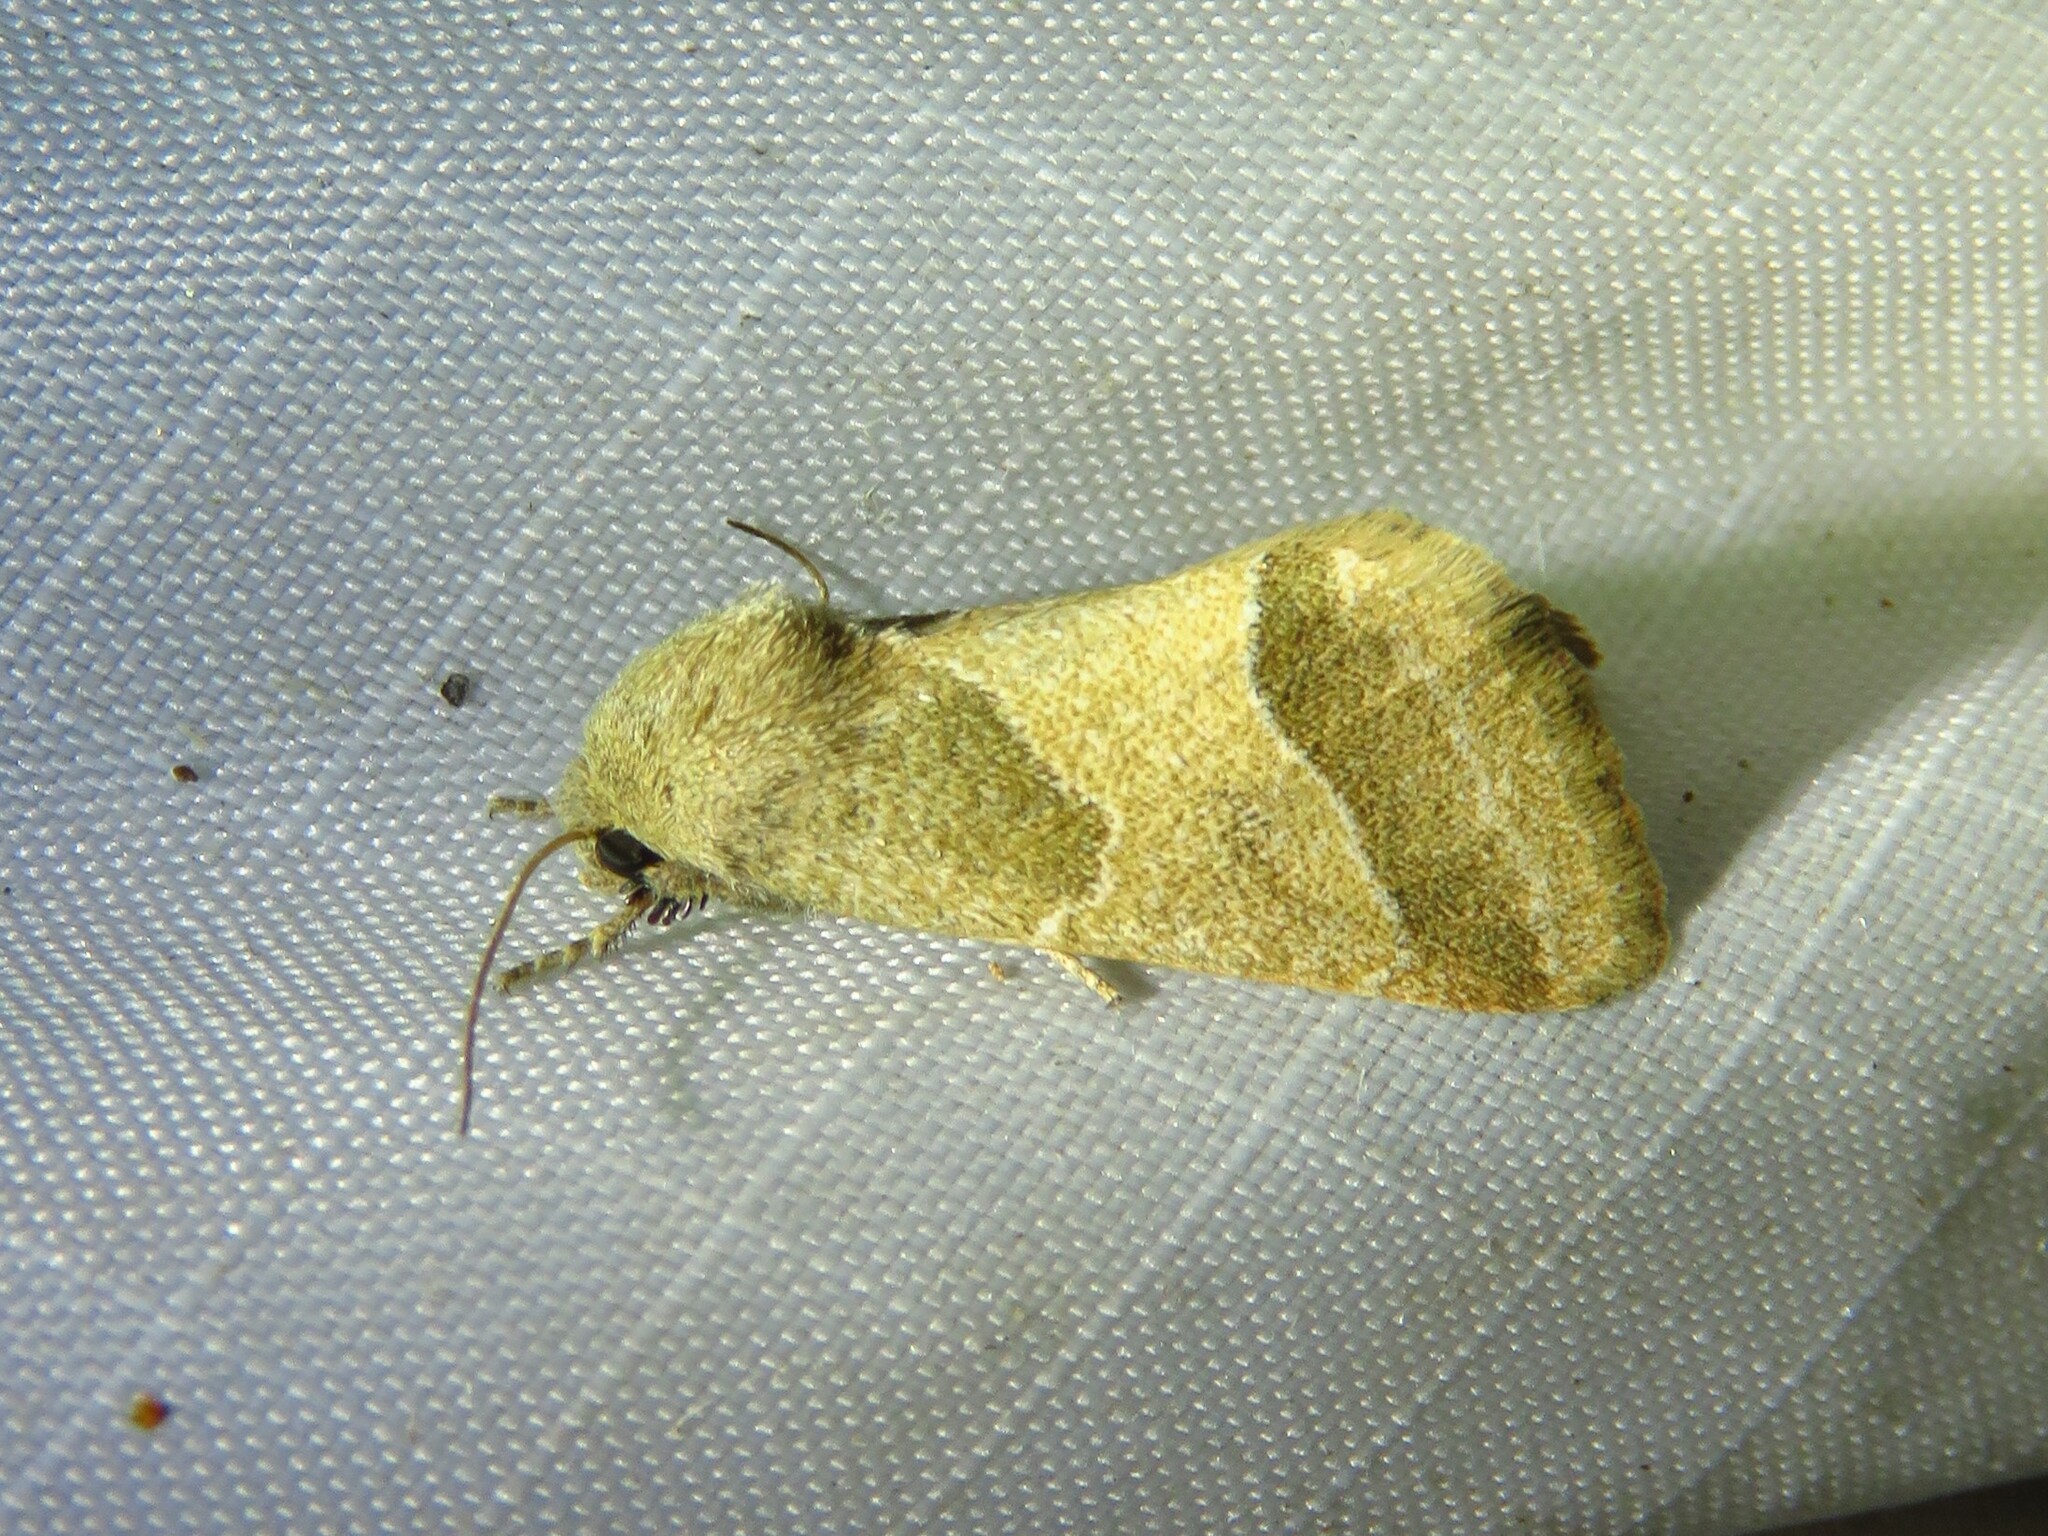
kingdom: Animalia
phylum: Arthropoda
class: Insecta
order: Lepidoptera
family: Noctuidae
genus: Schinia
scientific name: Schinia gracilenta
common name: Slender flower moth
